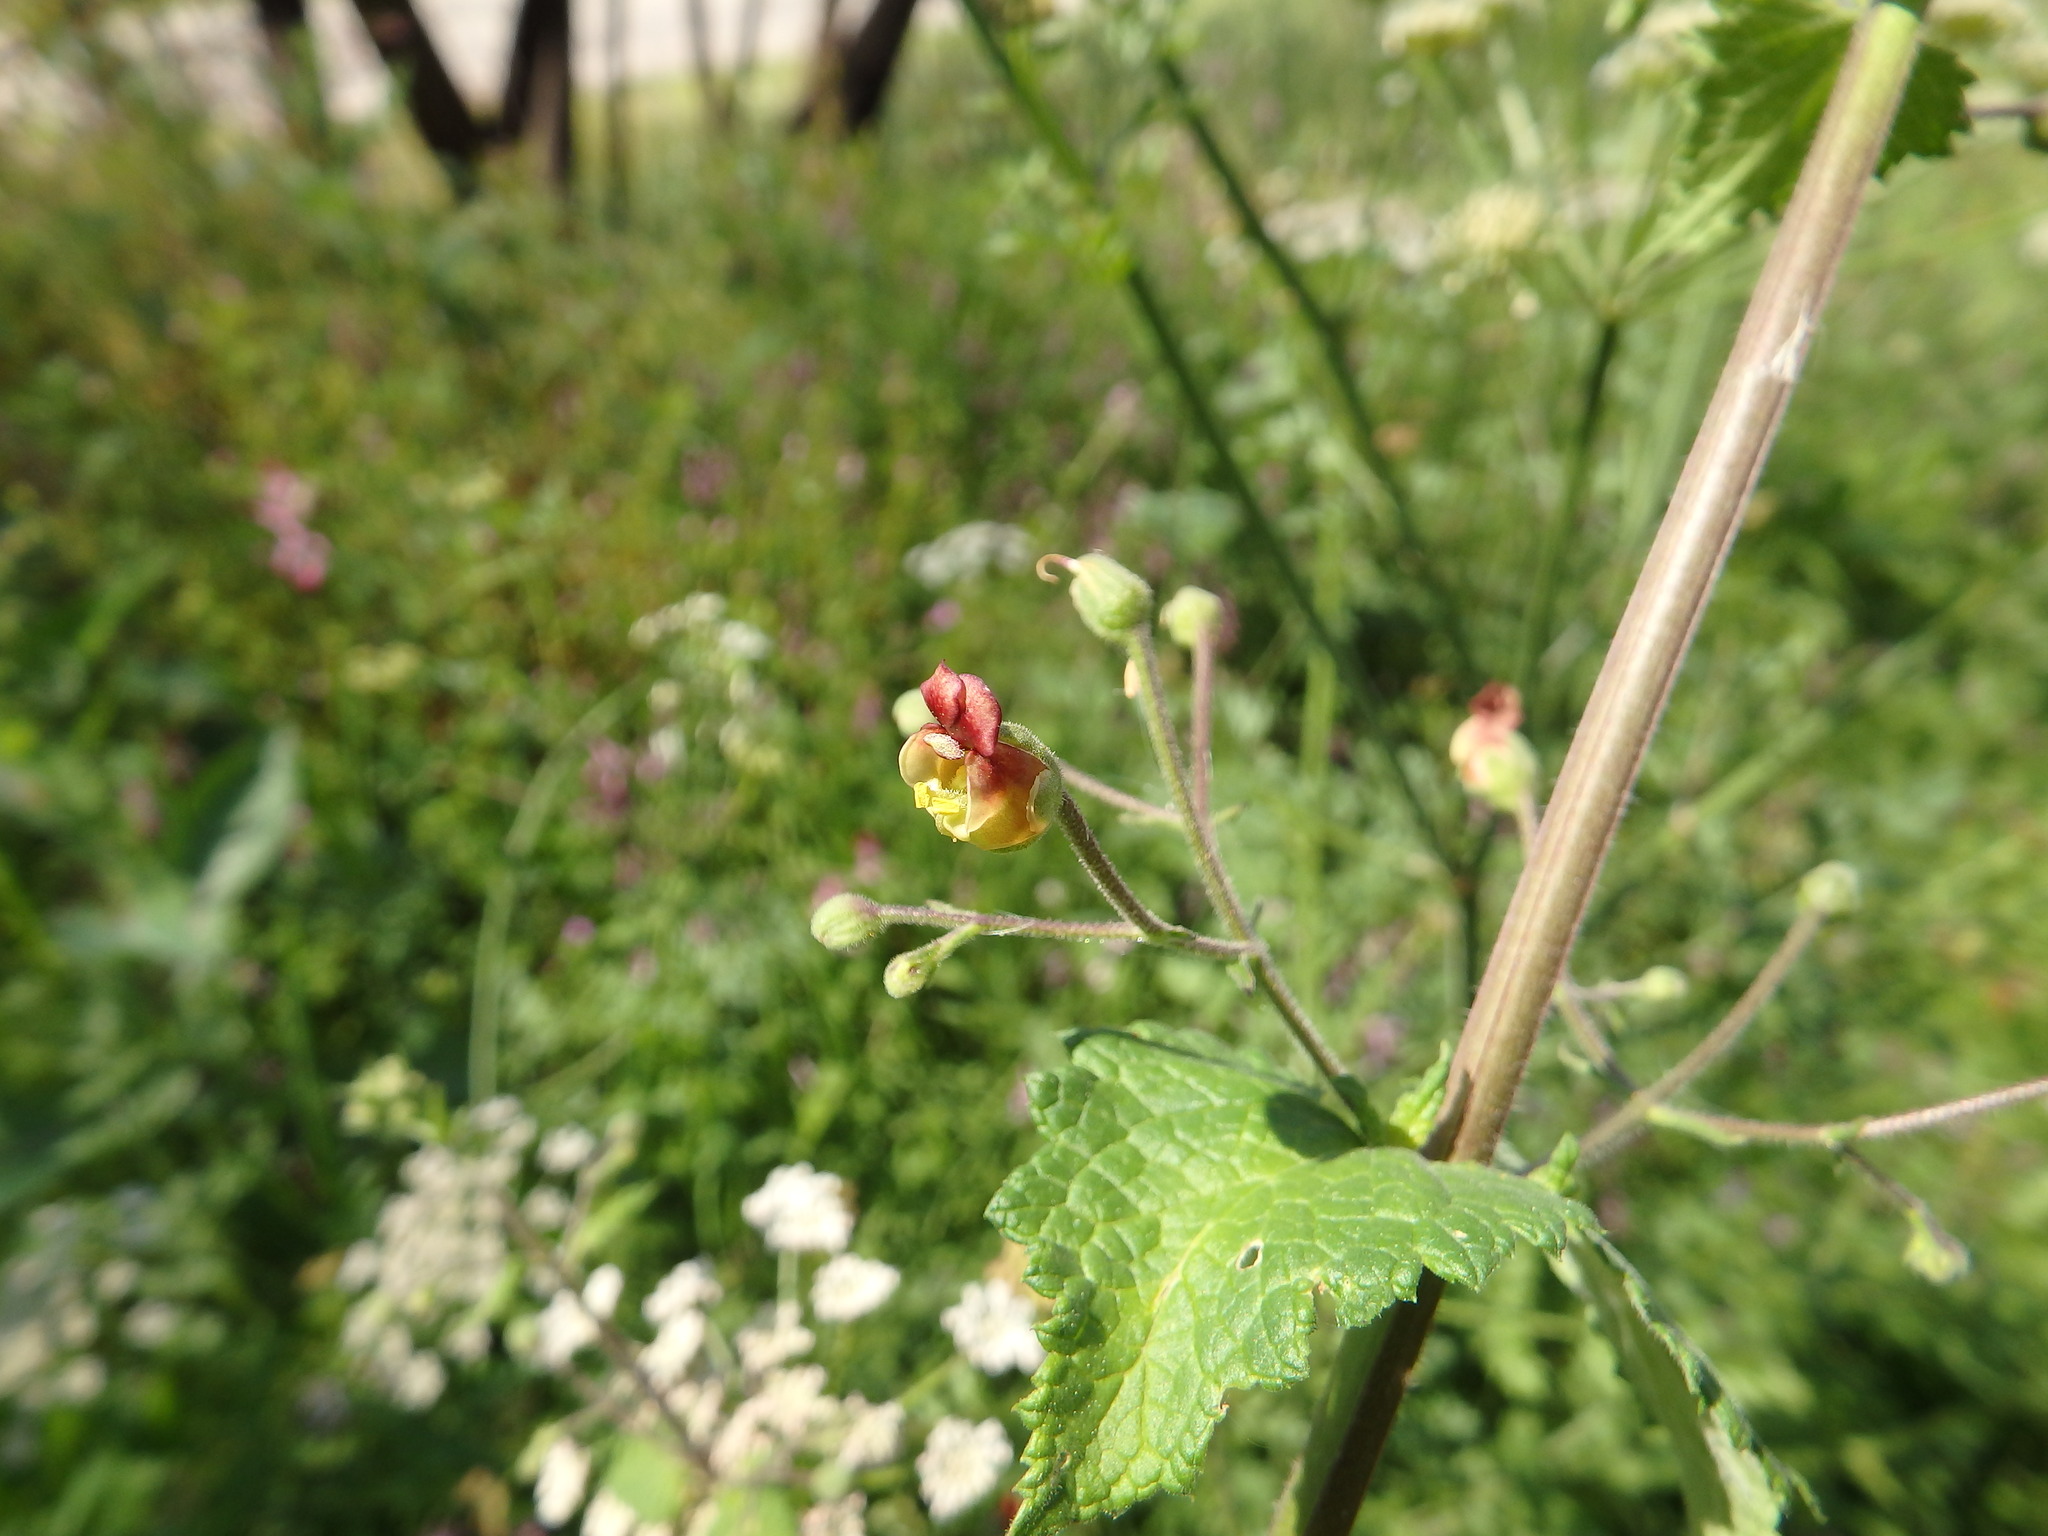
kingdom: Plantae
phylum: Tracheophyta
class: Magnoliopsida
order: Lamiales
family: Scrophulariaceae
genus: Scrophularia
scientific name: Scrophularia scorodonia
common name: Balm-leaved figwort
